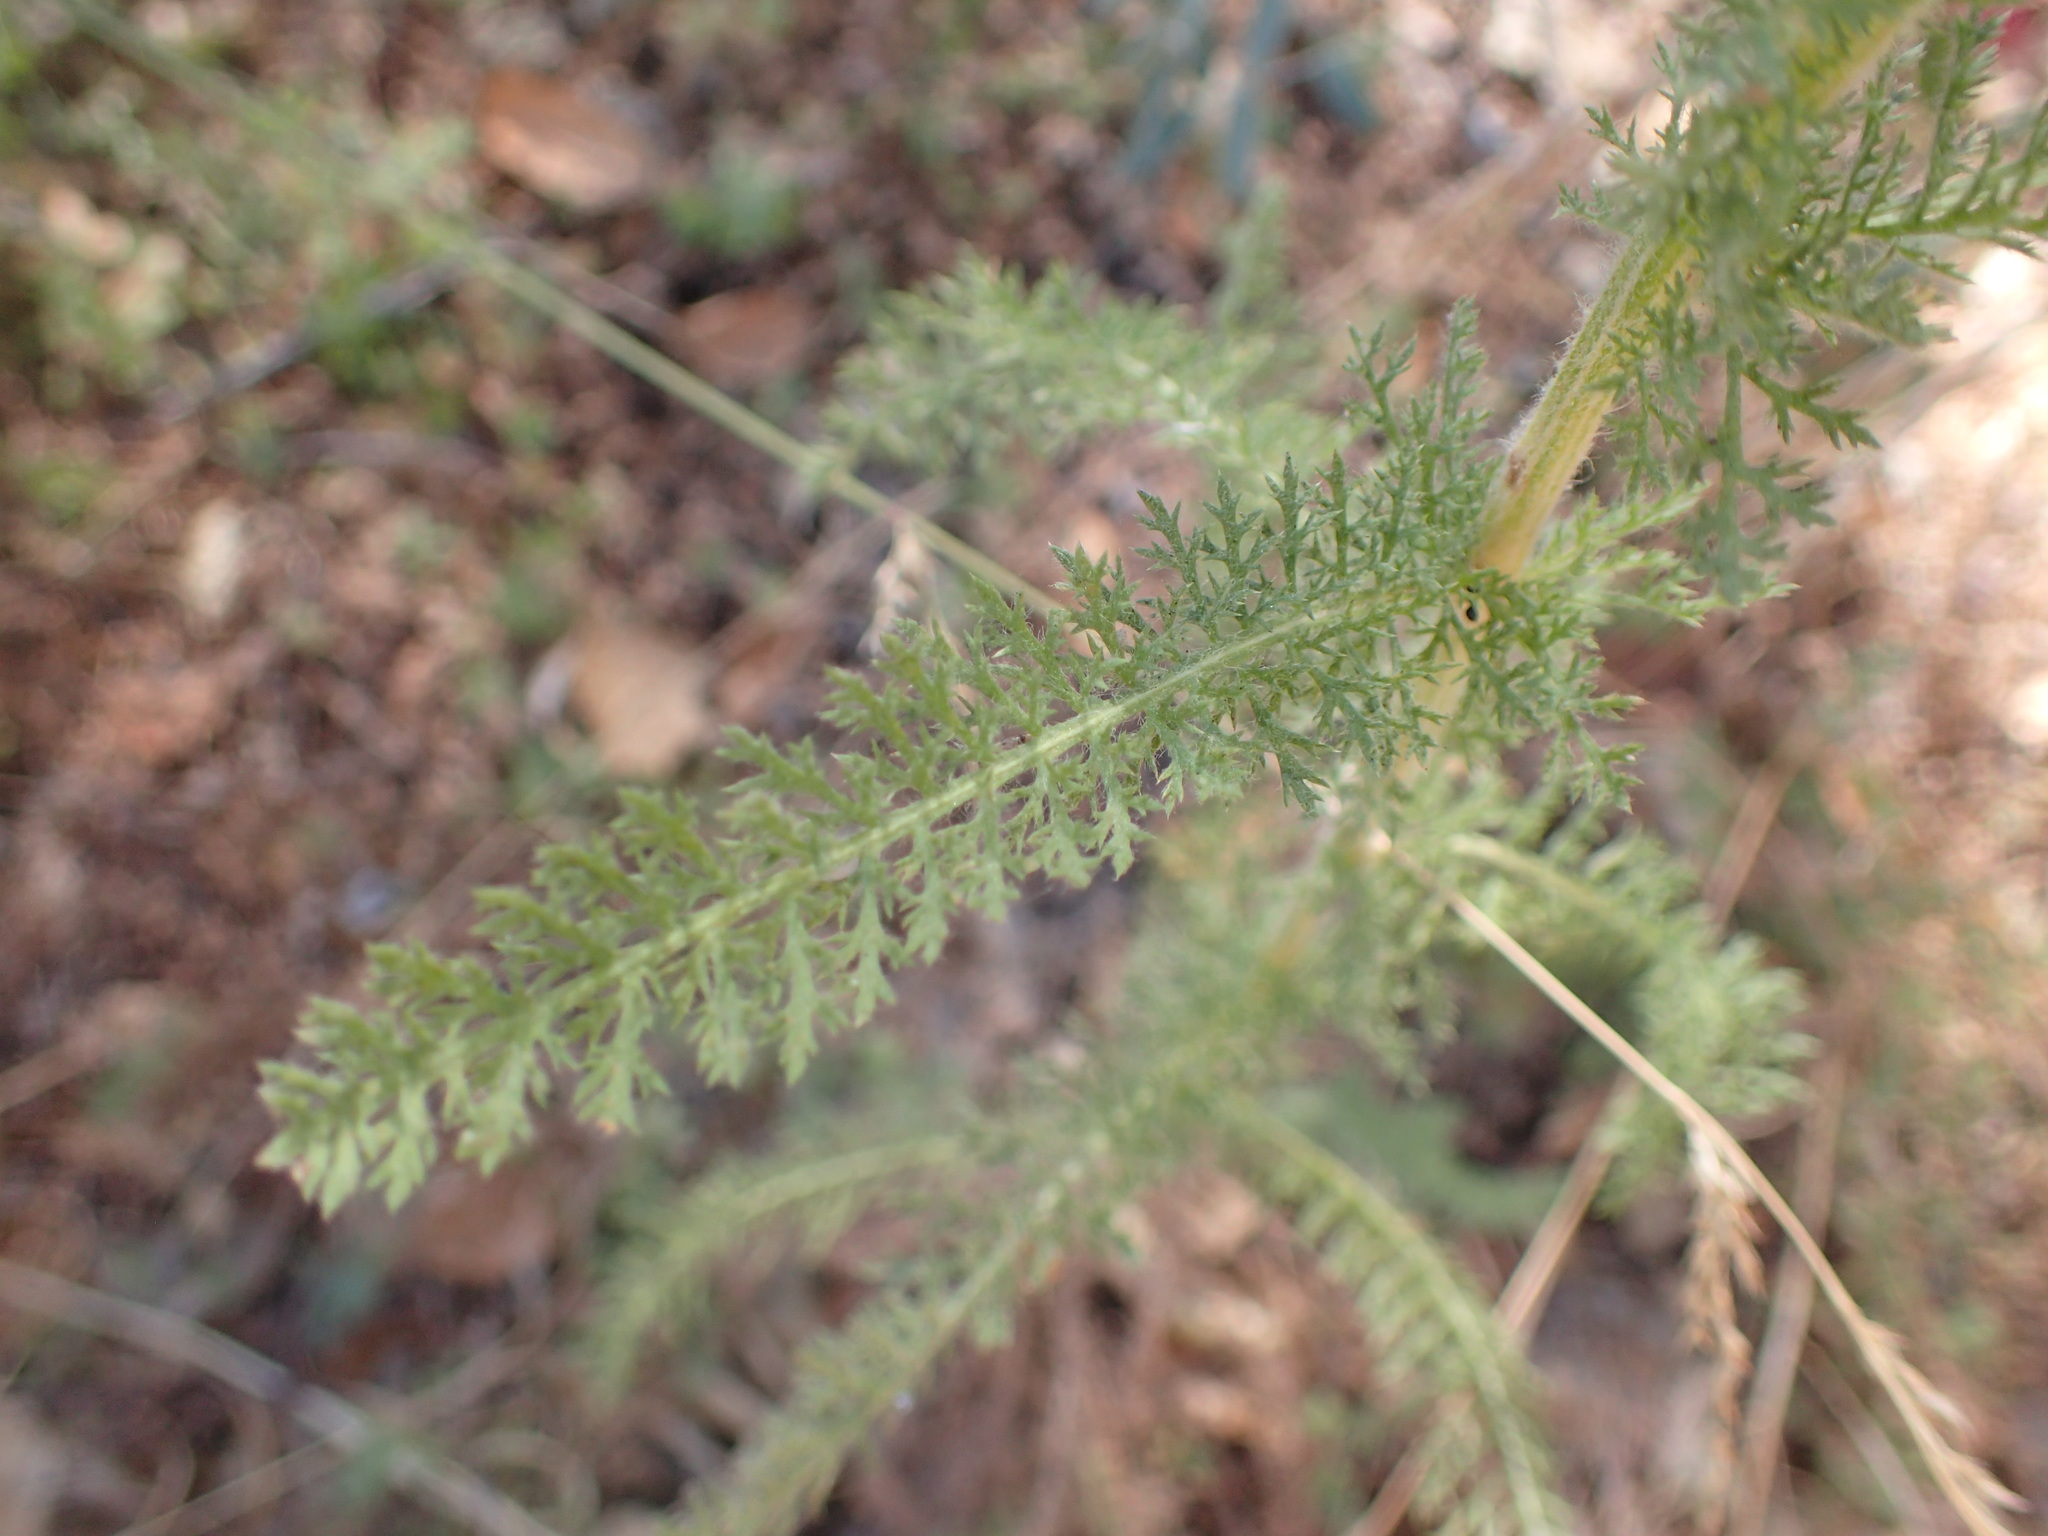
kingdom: Plantae
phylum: Tracheophyta
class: Magnoliopsida
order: Asterales
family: Asteraceae
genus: Achillea
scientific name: Achillea millefolium
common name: Yarrow
